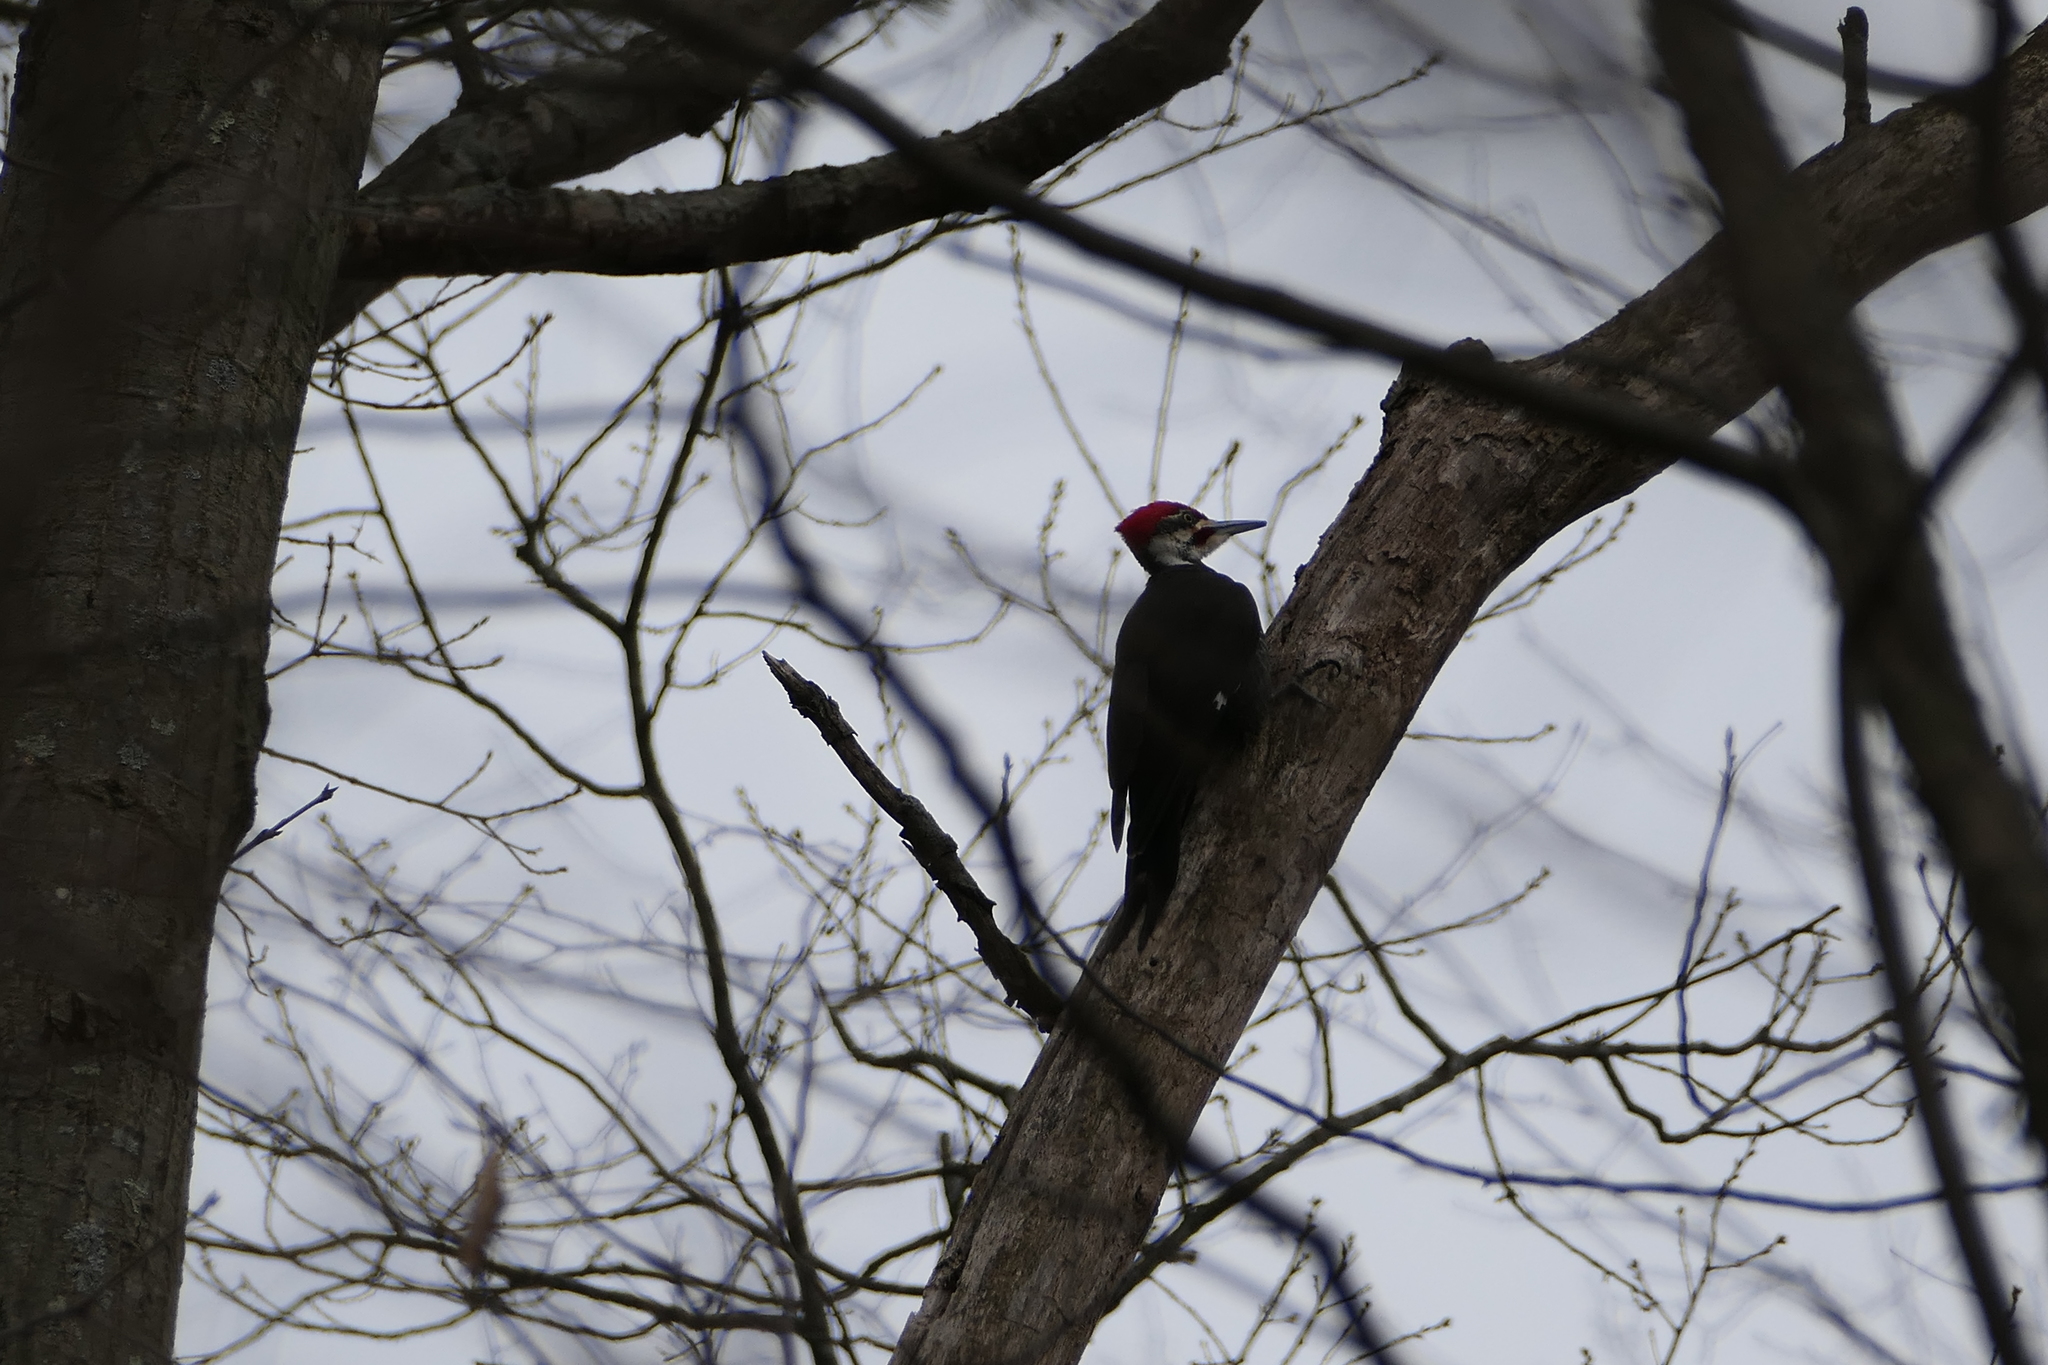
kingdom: Animalia
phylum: Chordata
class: Aves
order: Piciformes
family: Picidae
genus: Dryocopus
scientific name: Dryocopus pileatus
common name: Pileated woodpecker
